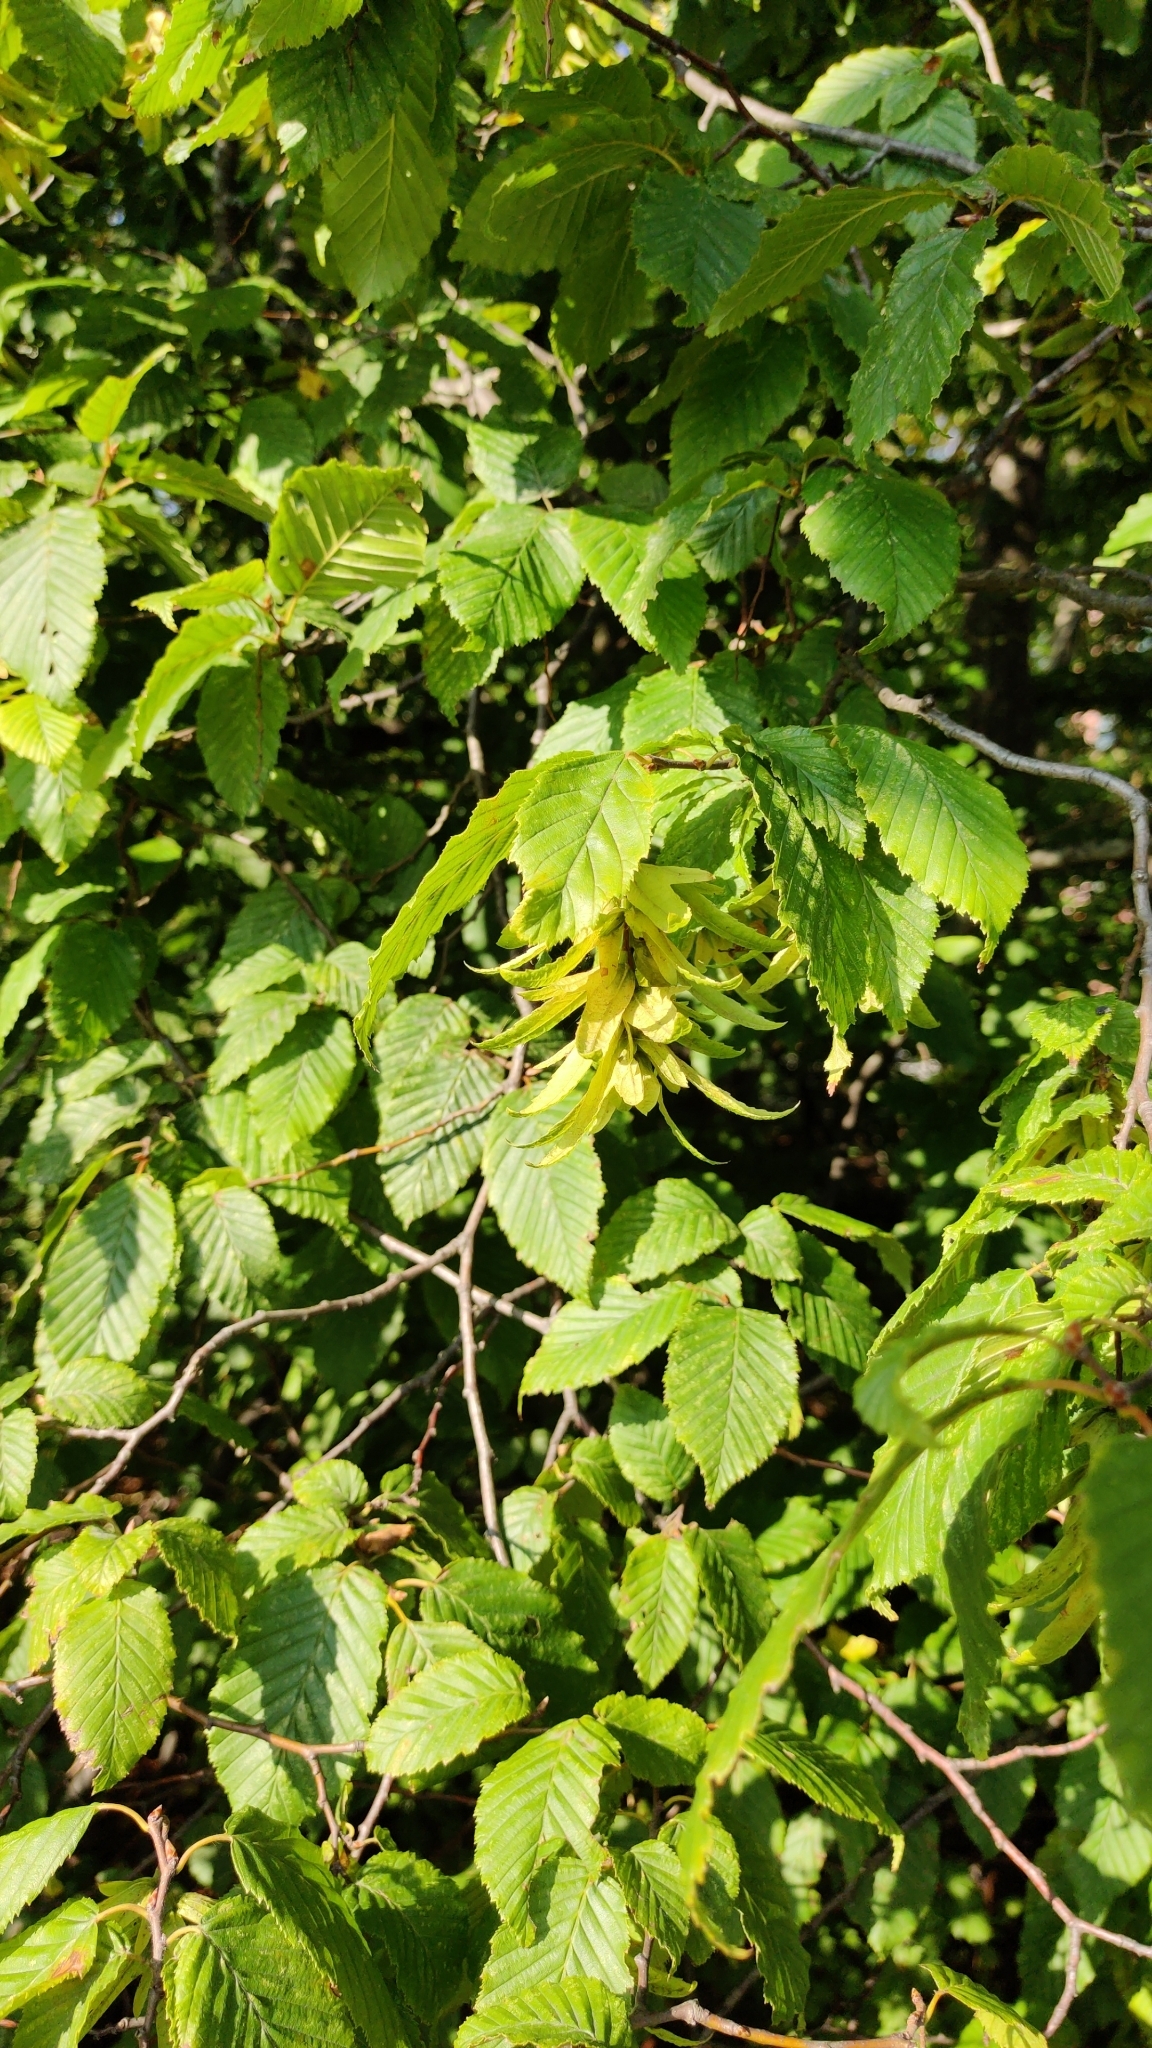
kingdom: Plantae
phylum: Tracheophyta
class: Magnoliopsida
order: Fagales
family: Betulaceae
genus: Carpinus
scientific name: Carpinus betulus
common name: Hornbeam
